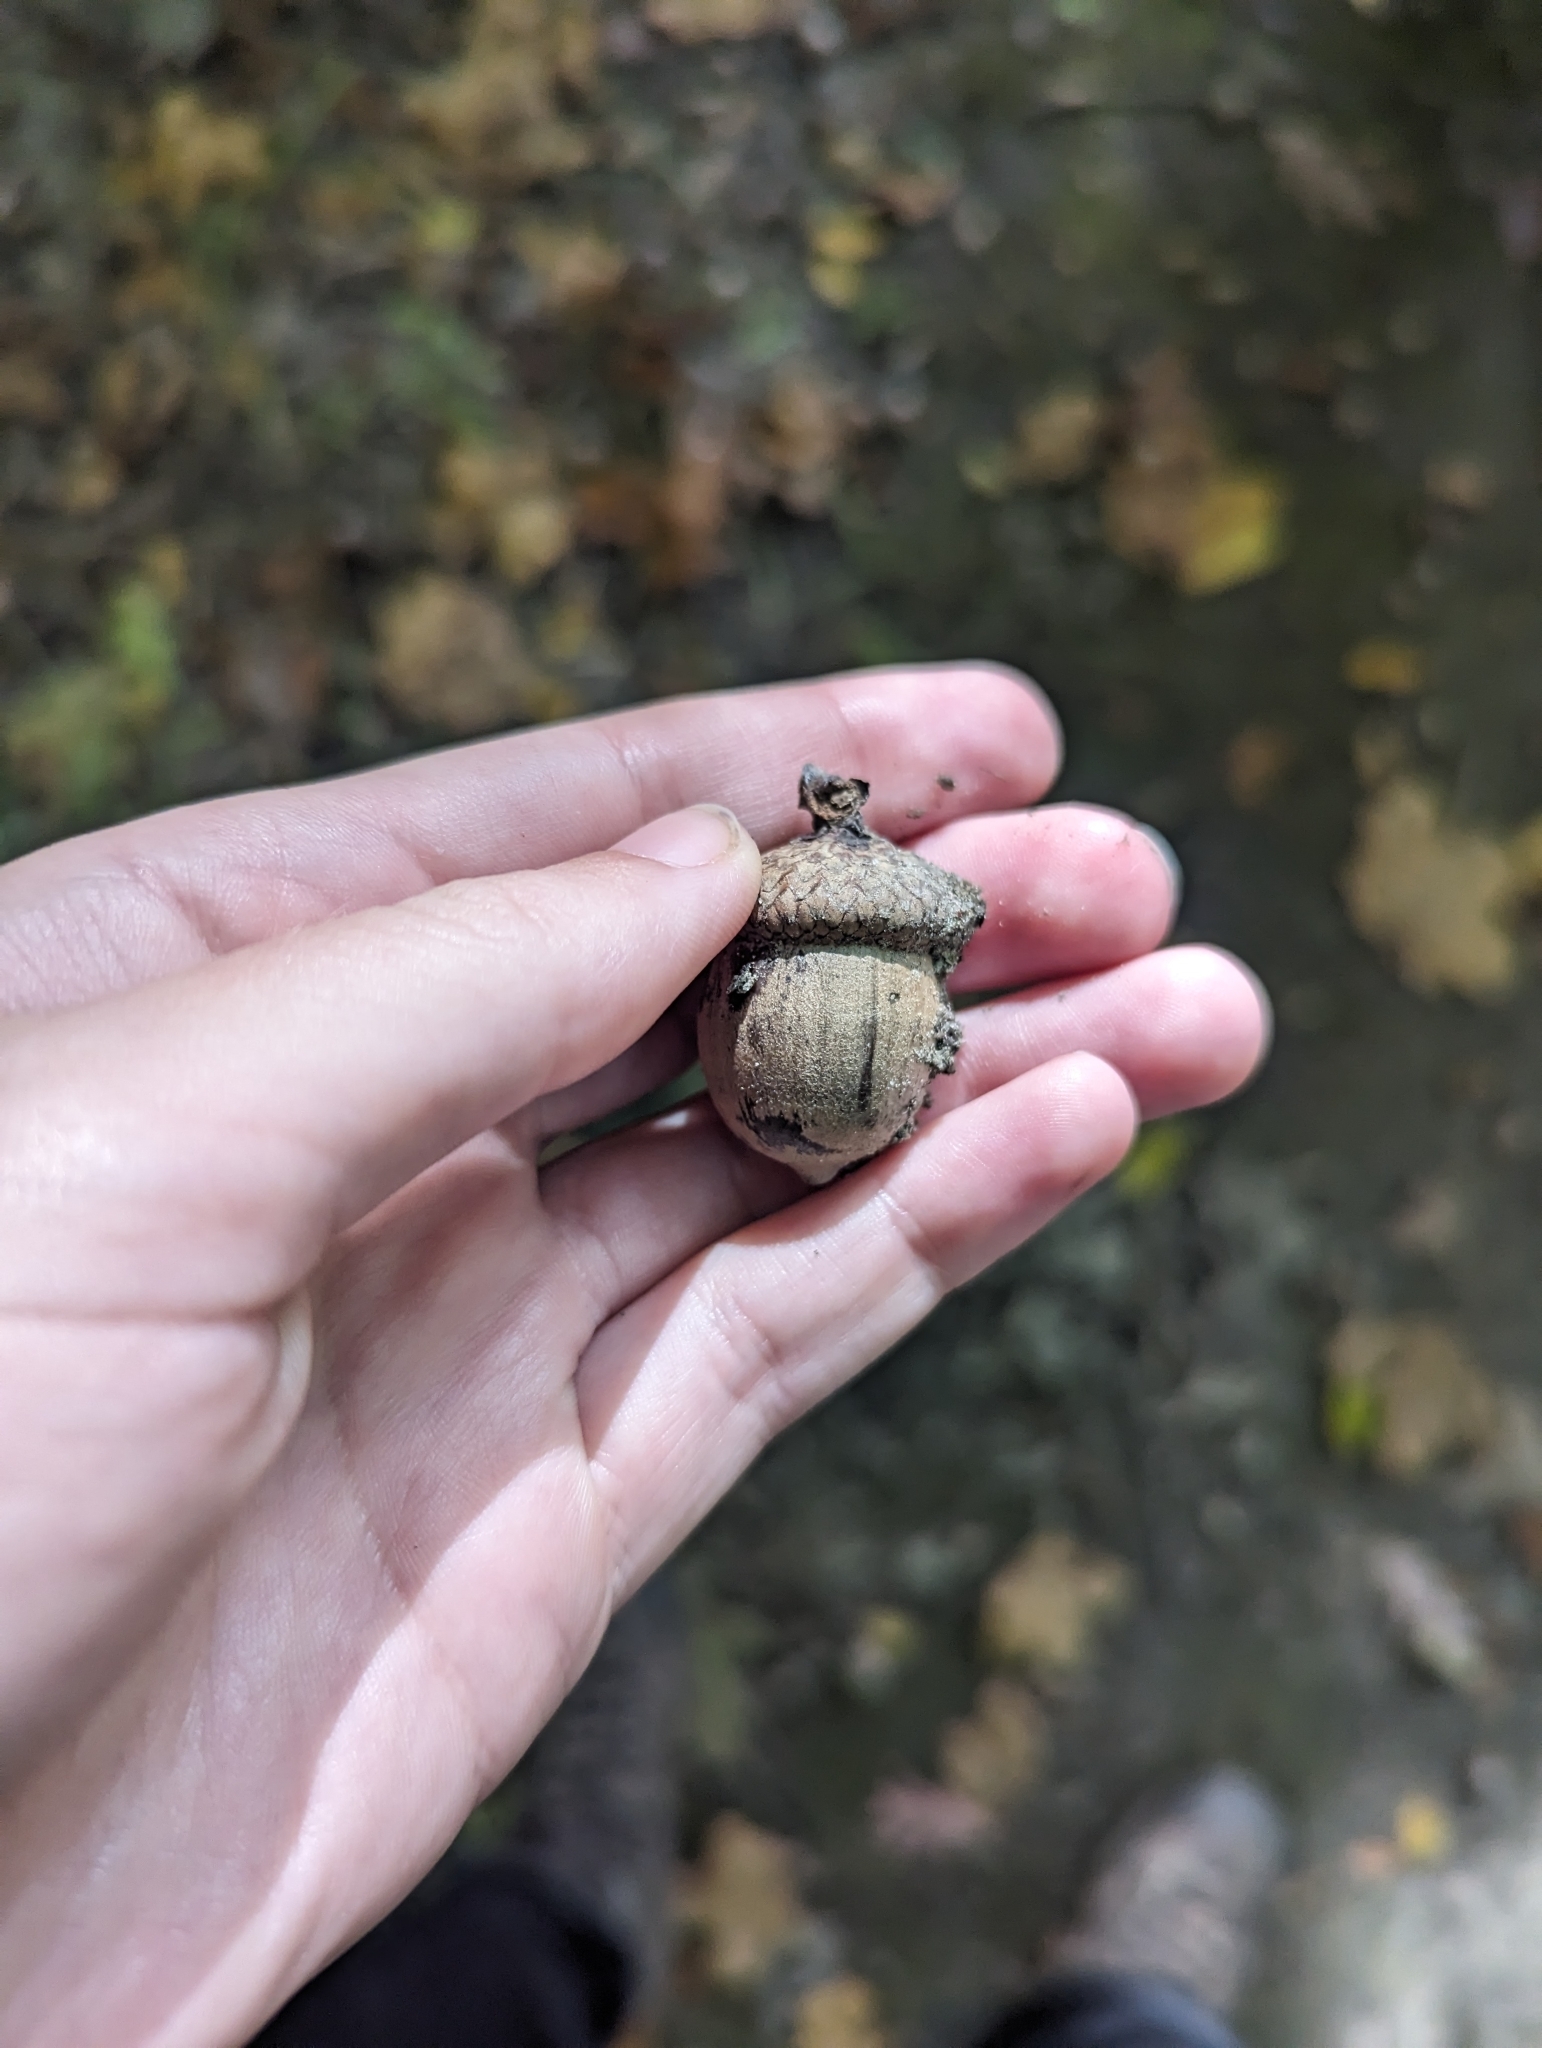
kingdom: Plantae
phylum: Tracheophyta
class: Magnoliopsida
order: Fagales
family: Fagaceae
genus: Quercus
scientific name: Quercus alba
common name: White oak
